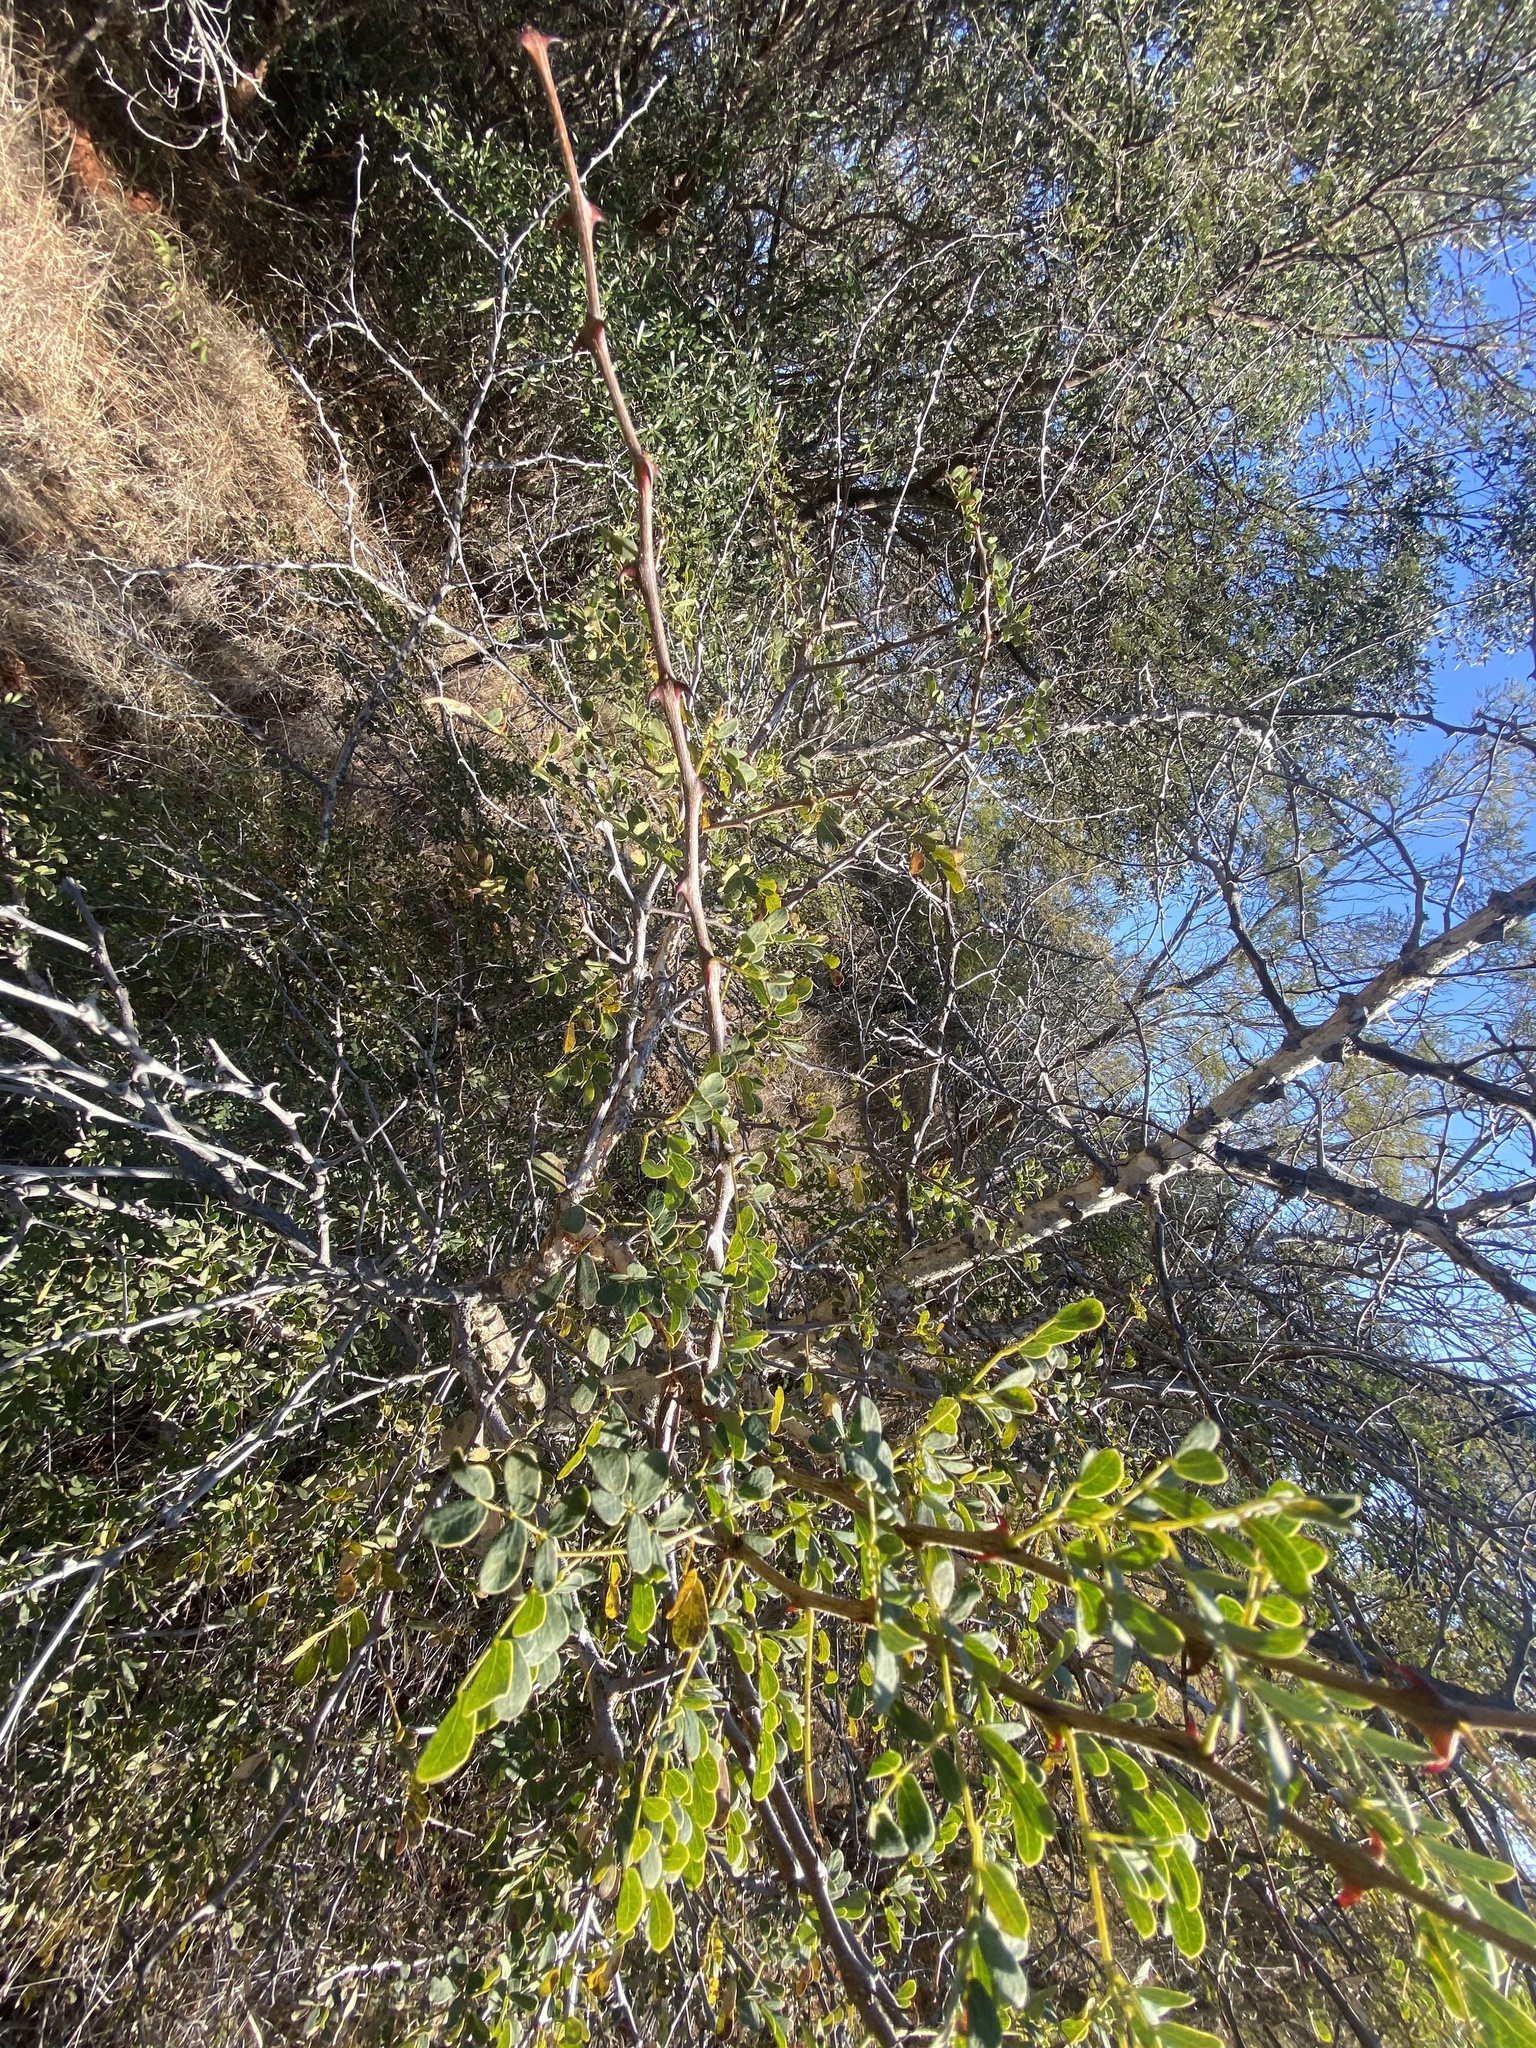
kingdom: Plantae
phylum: Tracheophyta
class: Magnoliopsida
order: Fabales
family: Fabaceae
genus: Senegalia
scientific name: Senegalia nigrescens
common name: Knobthorn
